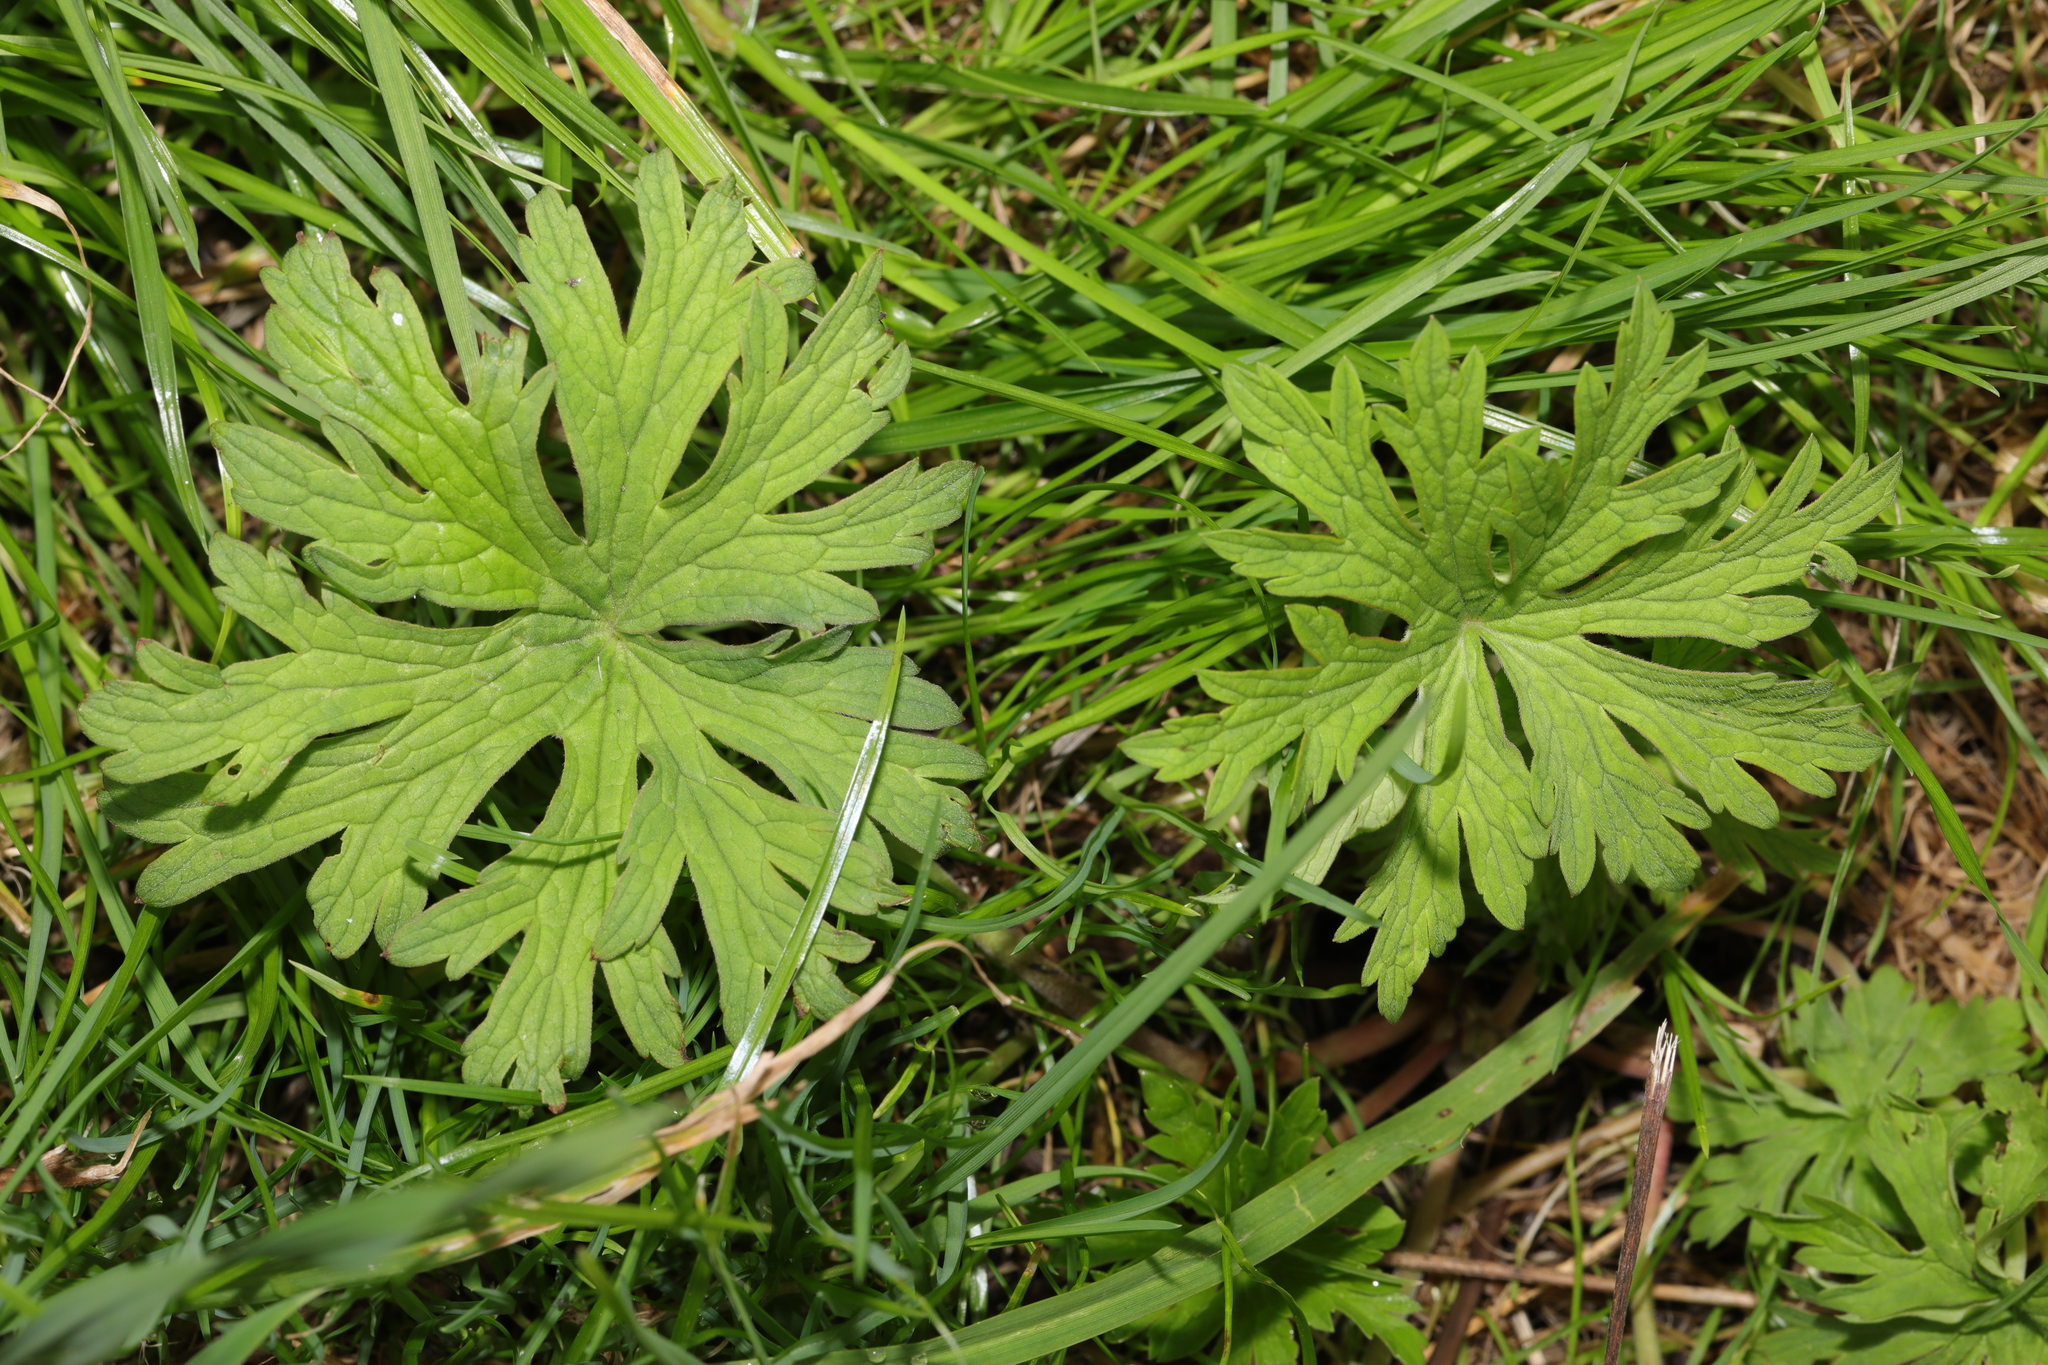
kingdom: Plantae
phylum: Tracheophyta
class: Magnoliopsida
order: Geraniales
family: Geraniaceae
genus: Geranium
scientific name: Geranium pratense
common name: Meadow crane's-bill
